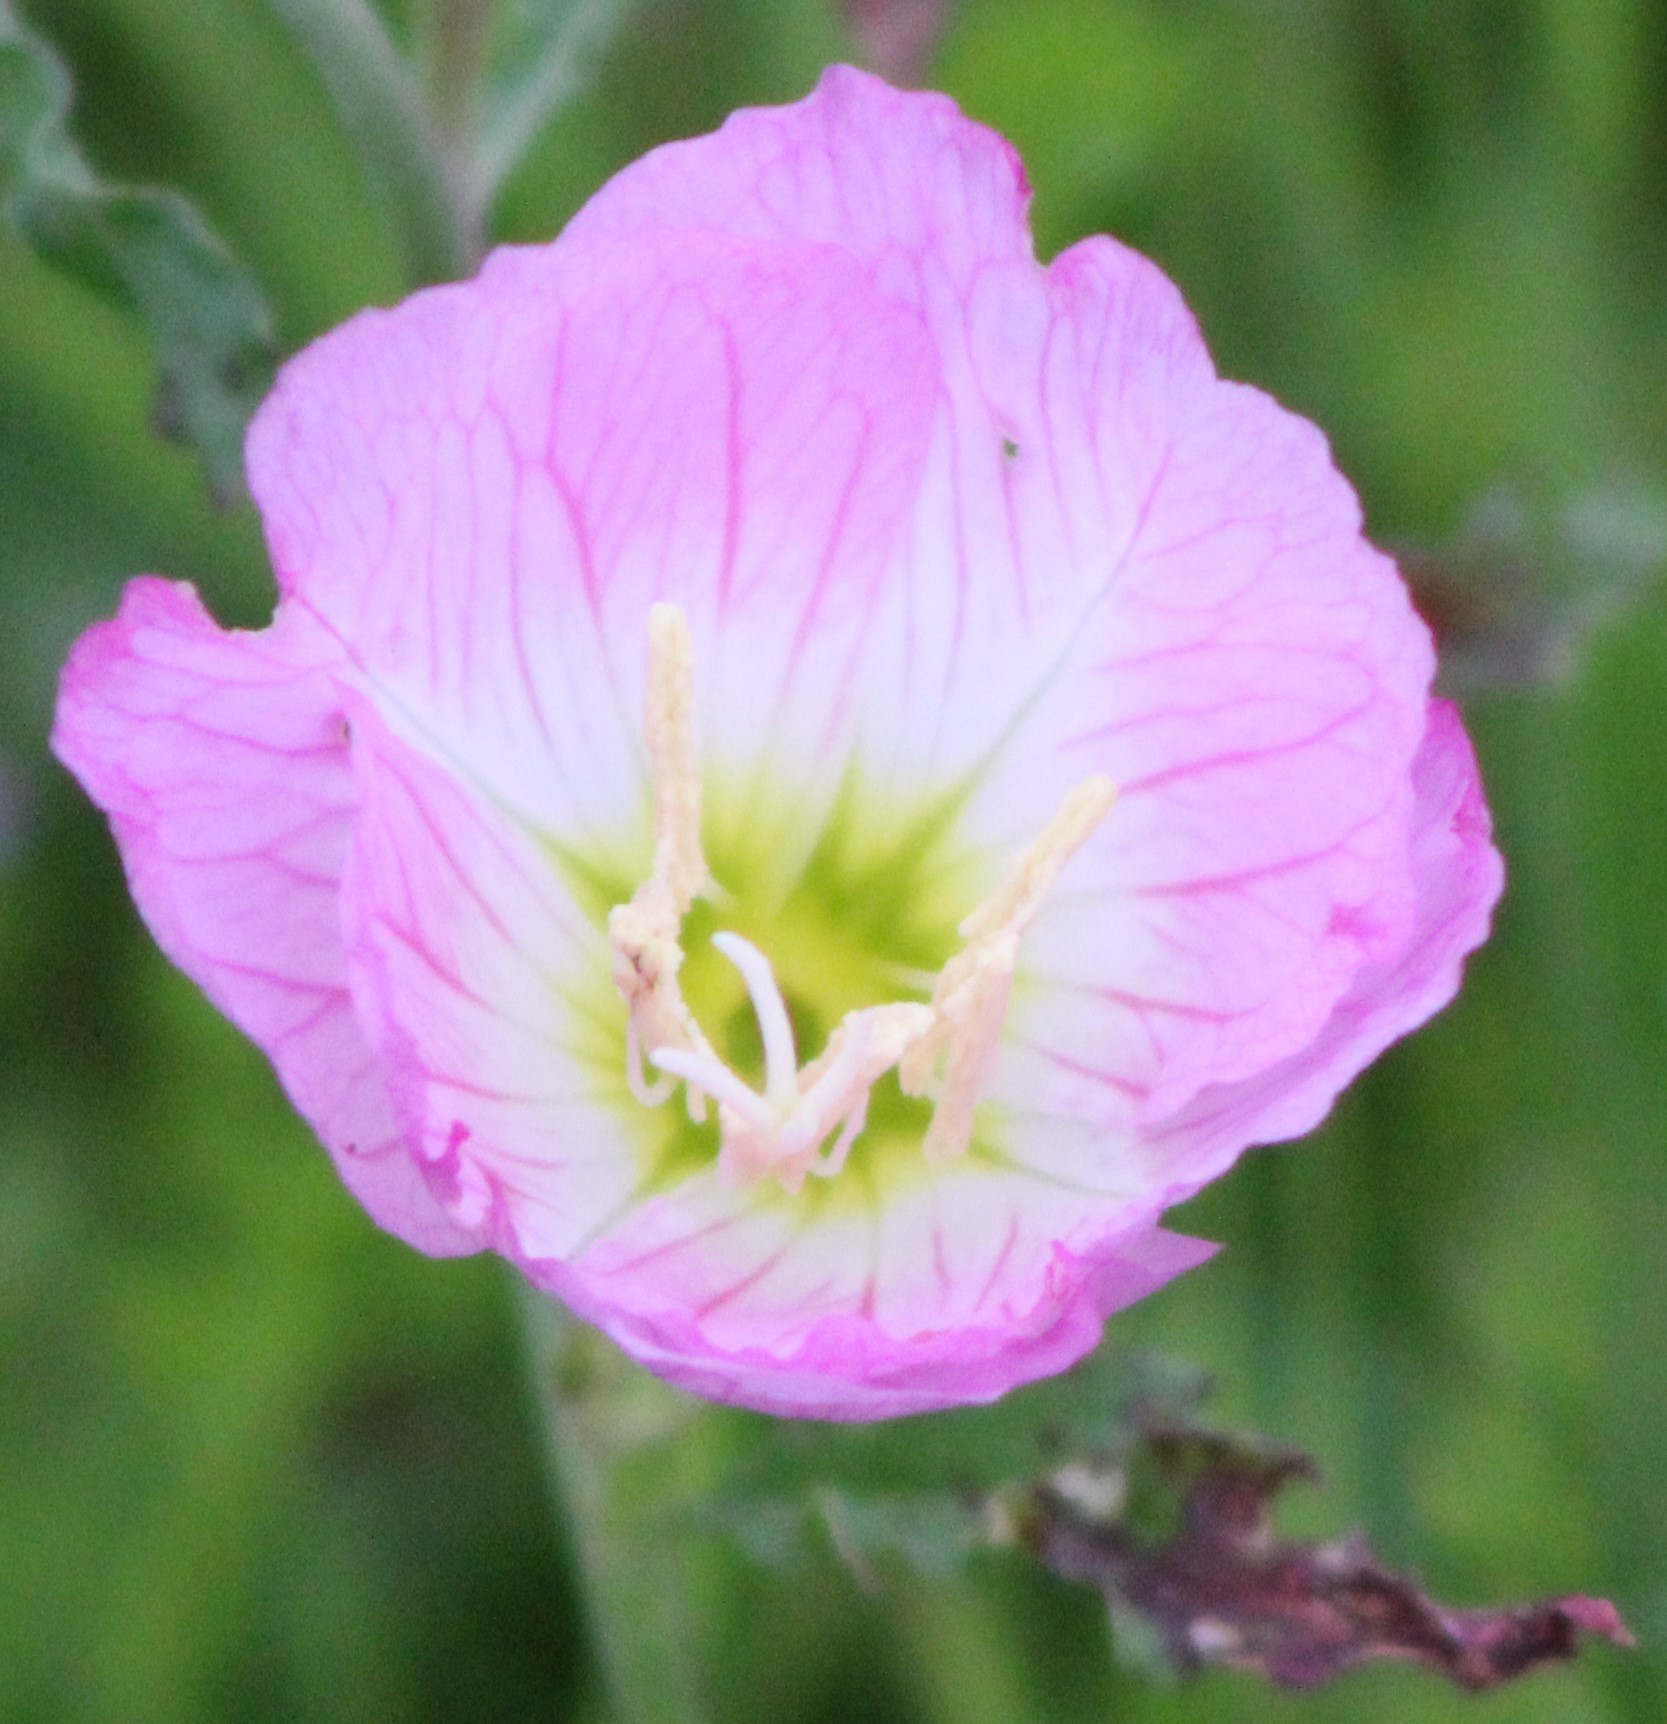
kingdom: Plantae
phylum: Tracheophyta
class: Magnoliopsida
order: Myrtales
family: Onagraceae
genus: Oenothera
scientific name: Oenothera speciosa
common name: White evening-primrose
